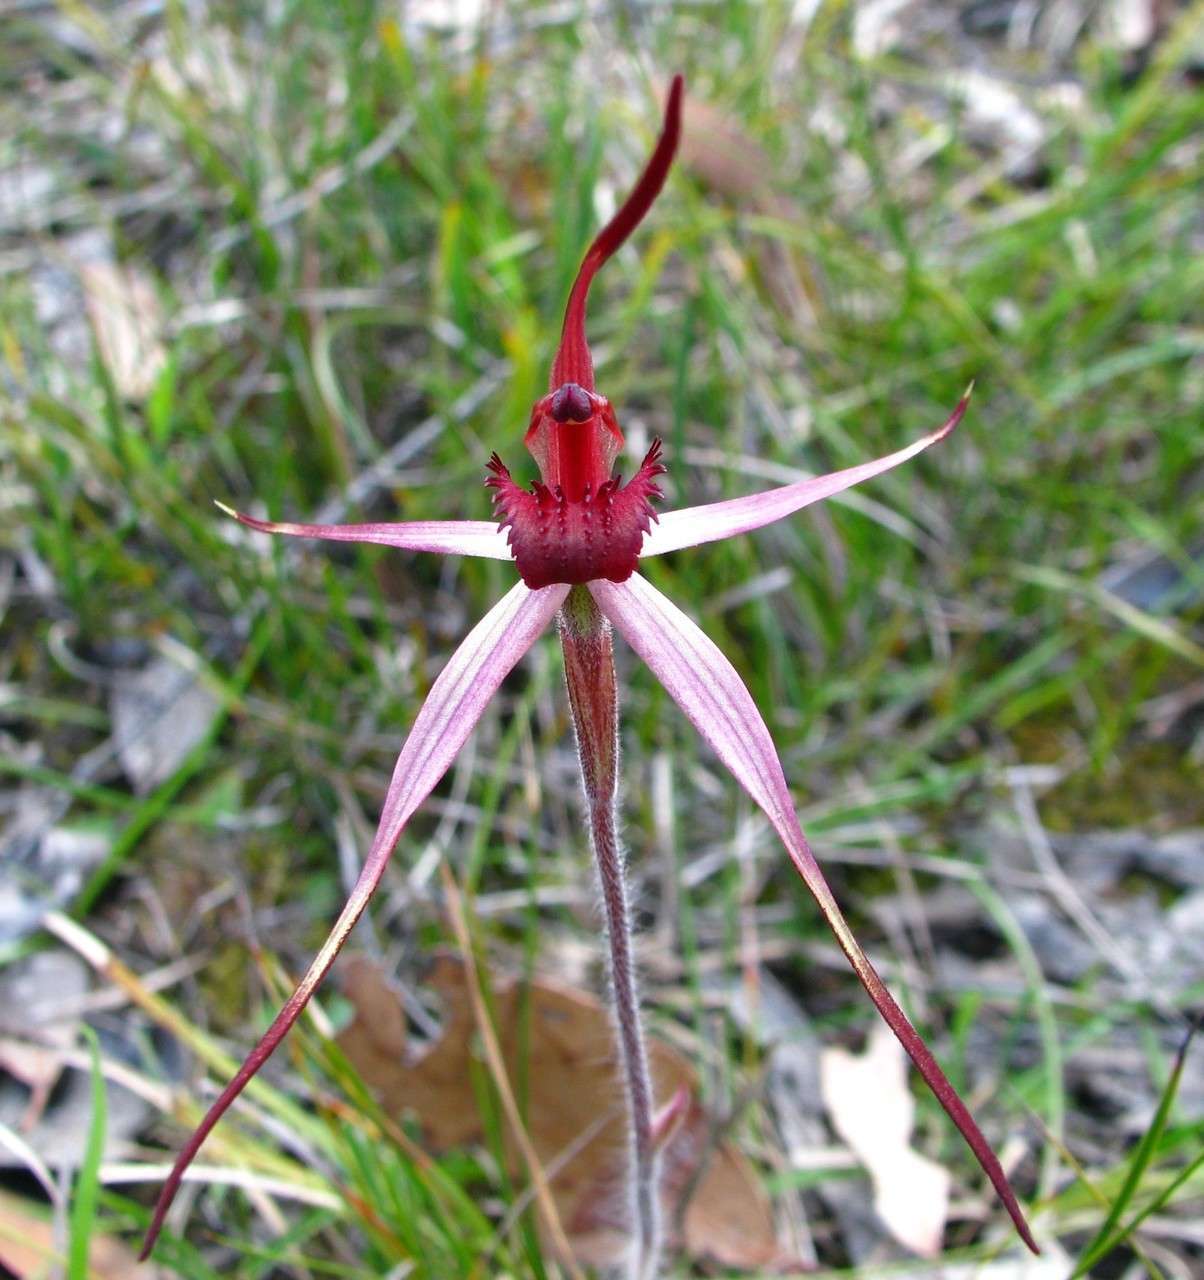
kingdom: Plantae
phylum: Tracheophyta
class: Liliopsida
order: Asparagales
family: Orchidaceae
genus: Caladenia
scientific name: Caladenia concolor
